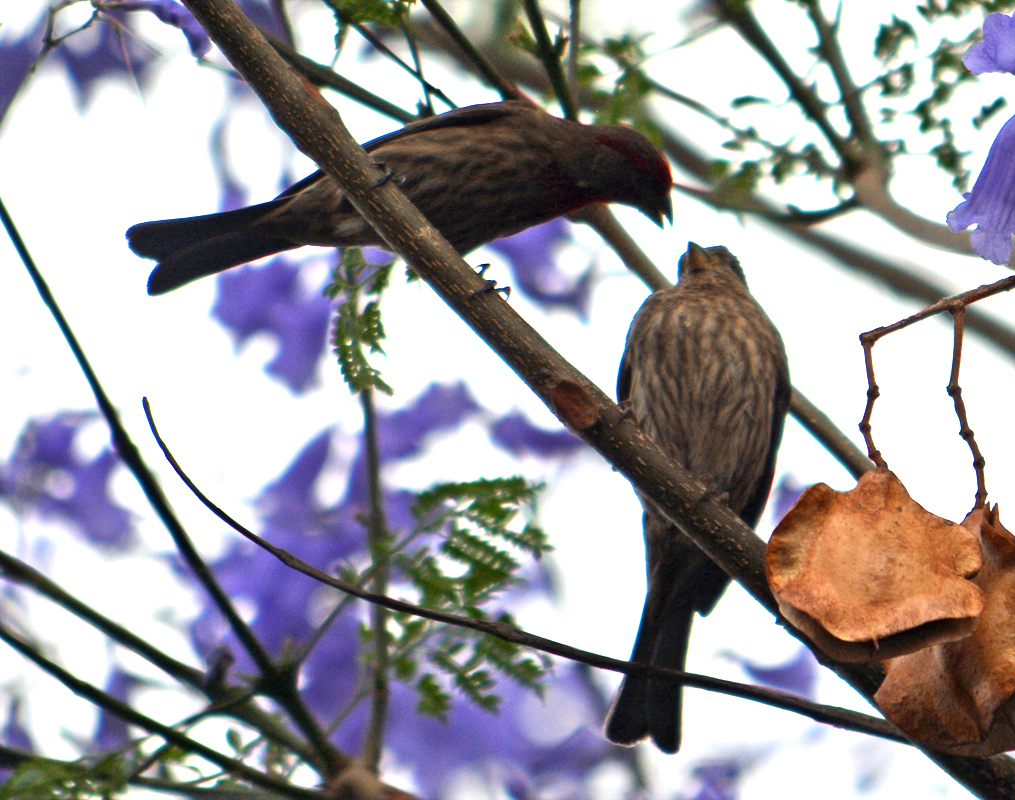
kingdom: Animalia
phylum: Chordata
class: Aves
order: Passeriformes
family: Fringillidae
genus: Haemorhous
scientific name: Haemorhous mexicanus
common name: House finch
